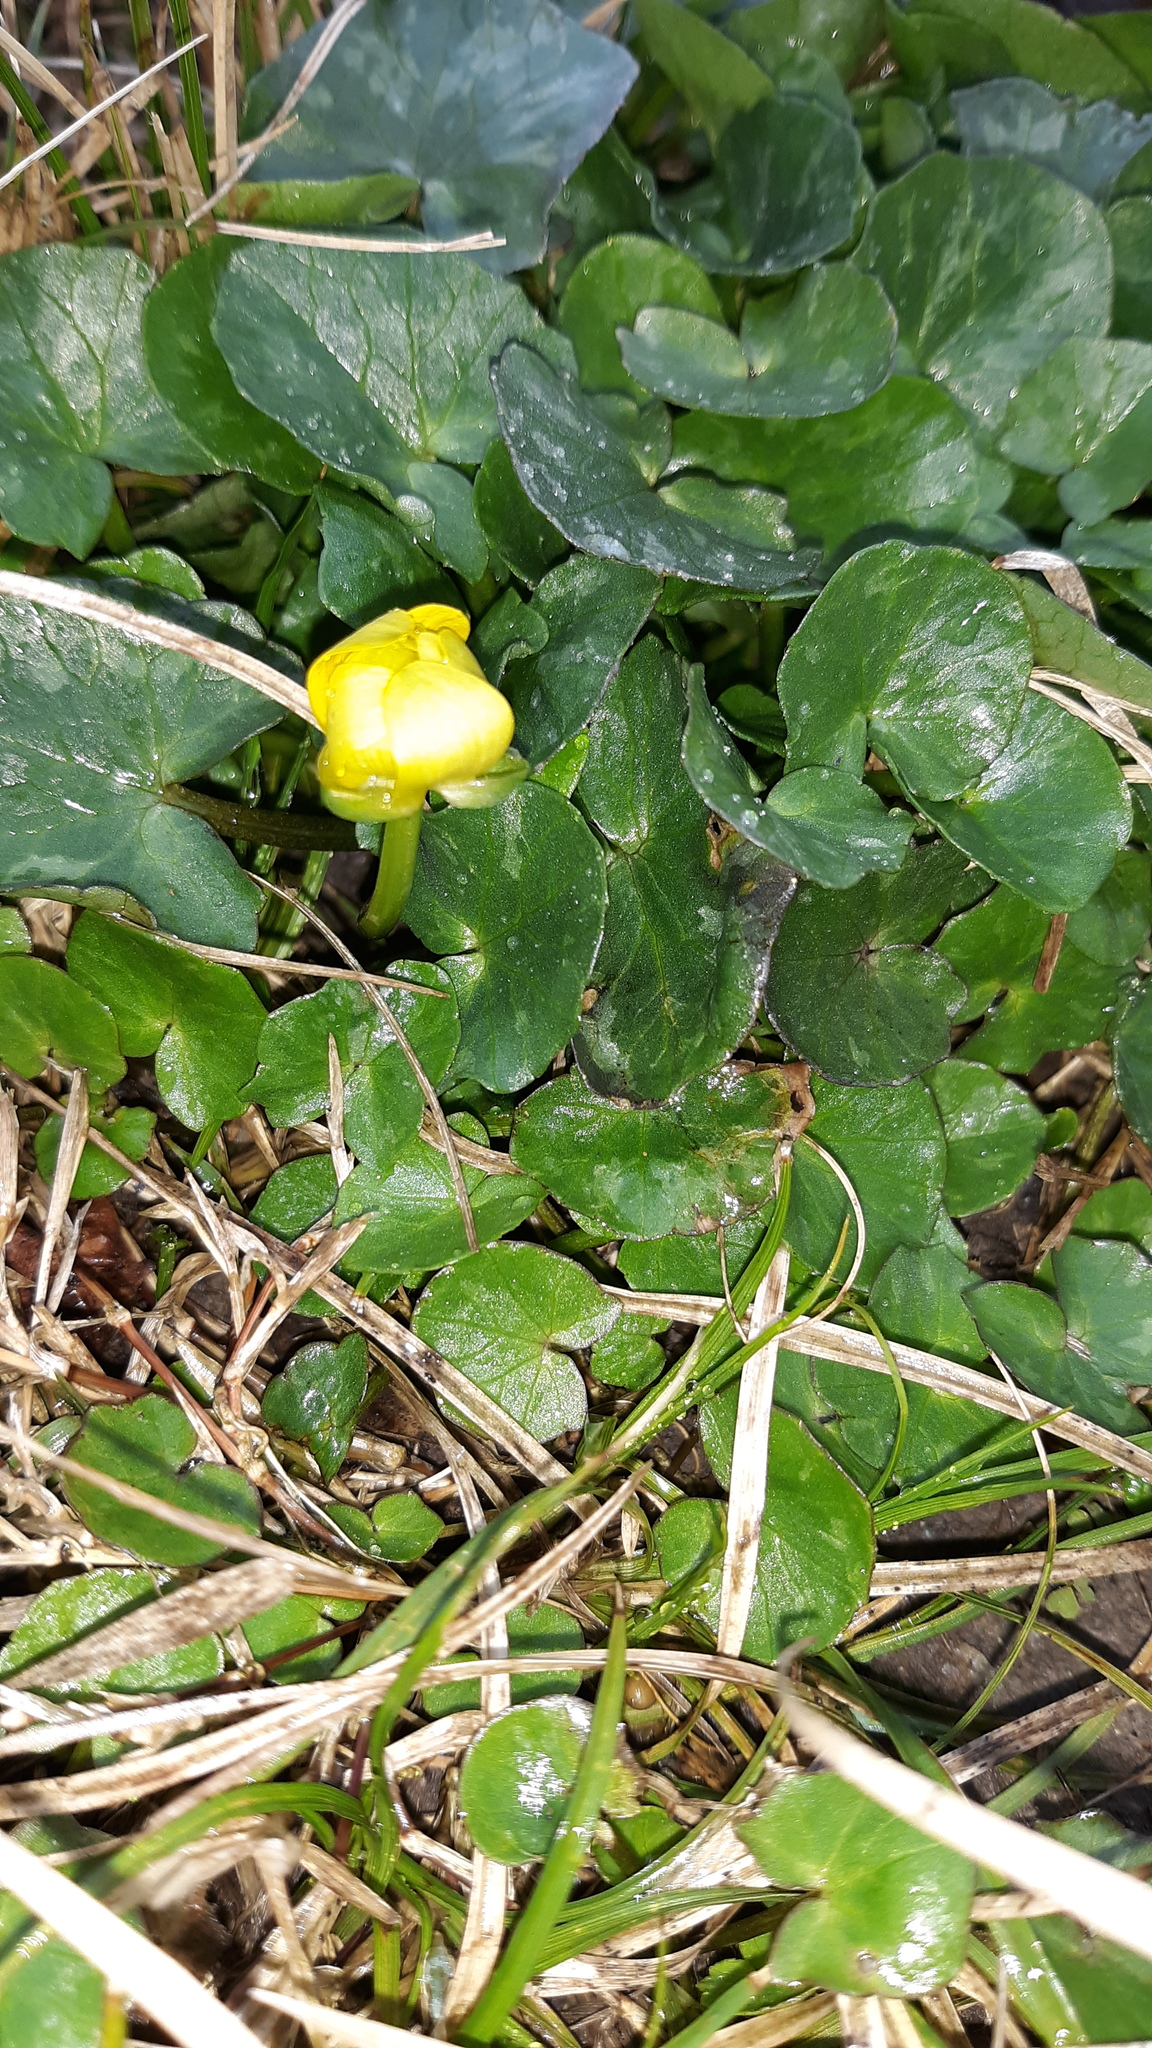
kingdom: Plantae
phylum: Tracheophyta
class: Magnoliopsida
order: Ranunculales
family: Ranunculaceae
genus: Ficaria
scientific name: Ficaria verna
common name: Lesser celandine
